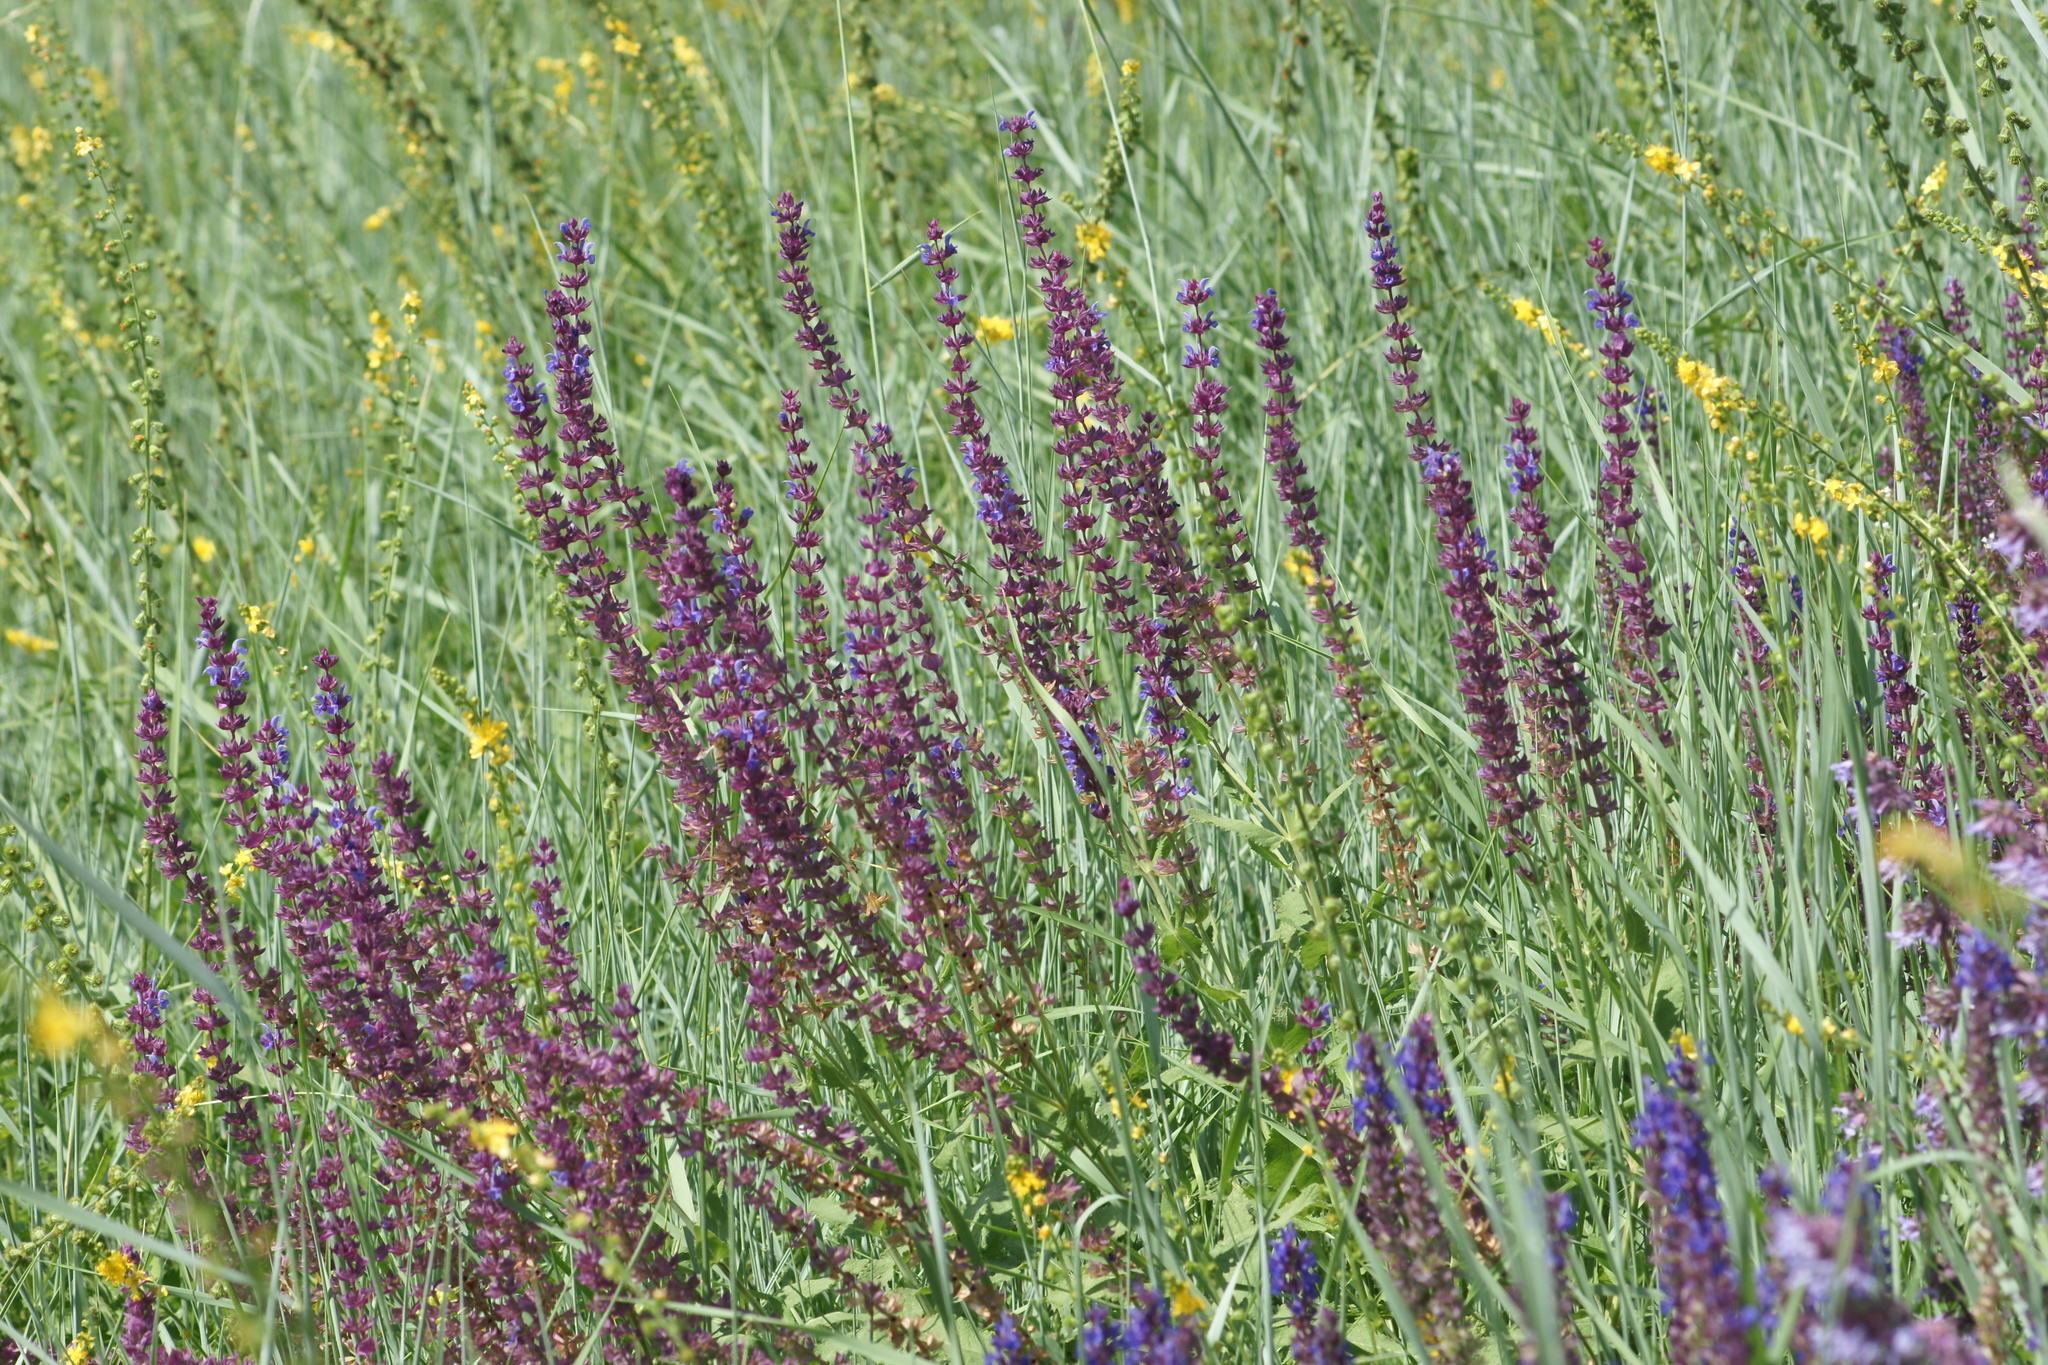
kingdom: Plantae
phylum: Tracheophyta
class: Magnoliopsida
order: Lamiales
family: Lamiaceae
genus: Salvia
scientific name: Salvia nemorosa
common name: Balkan clary
